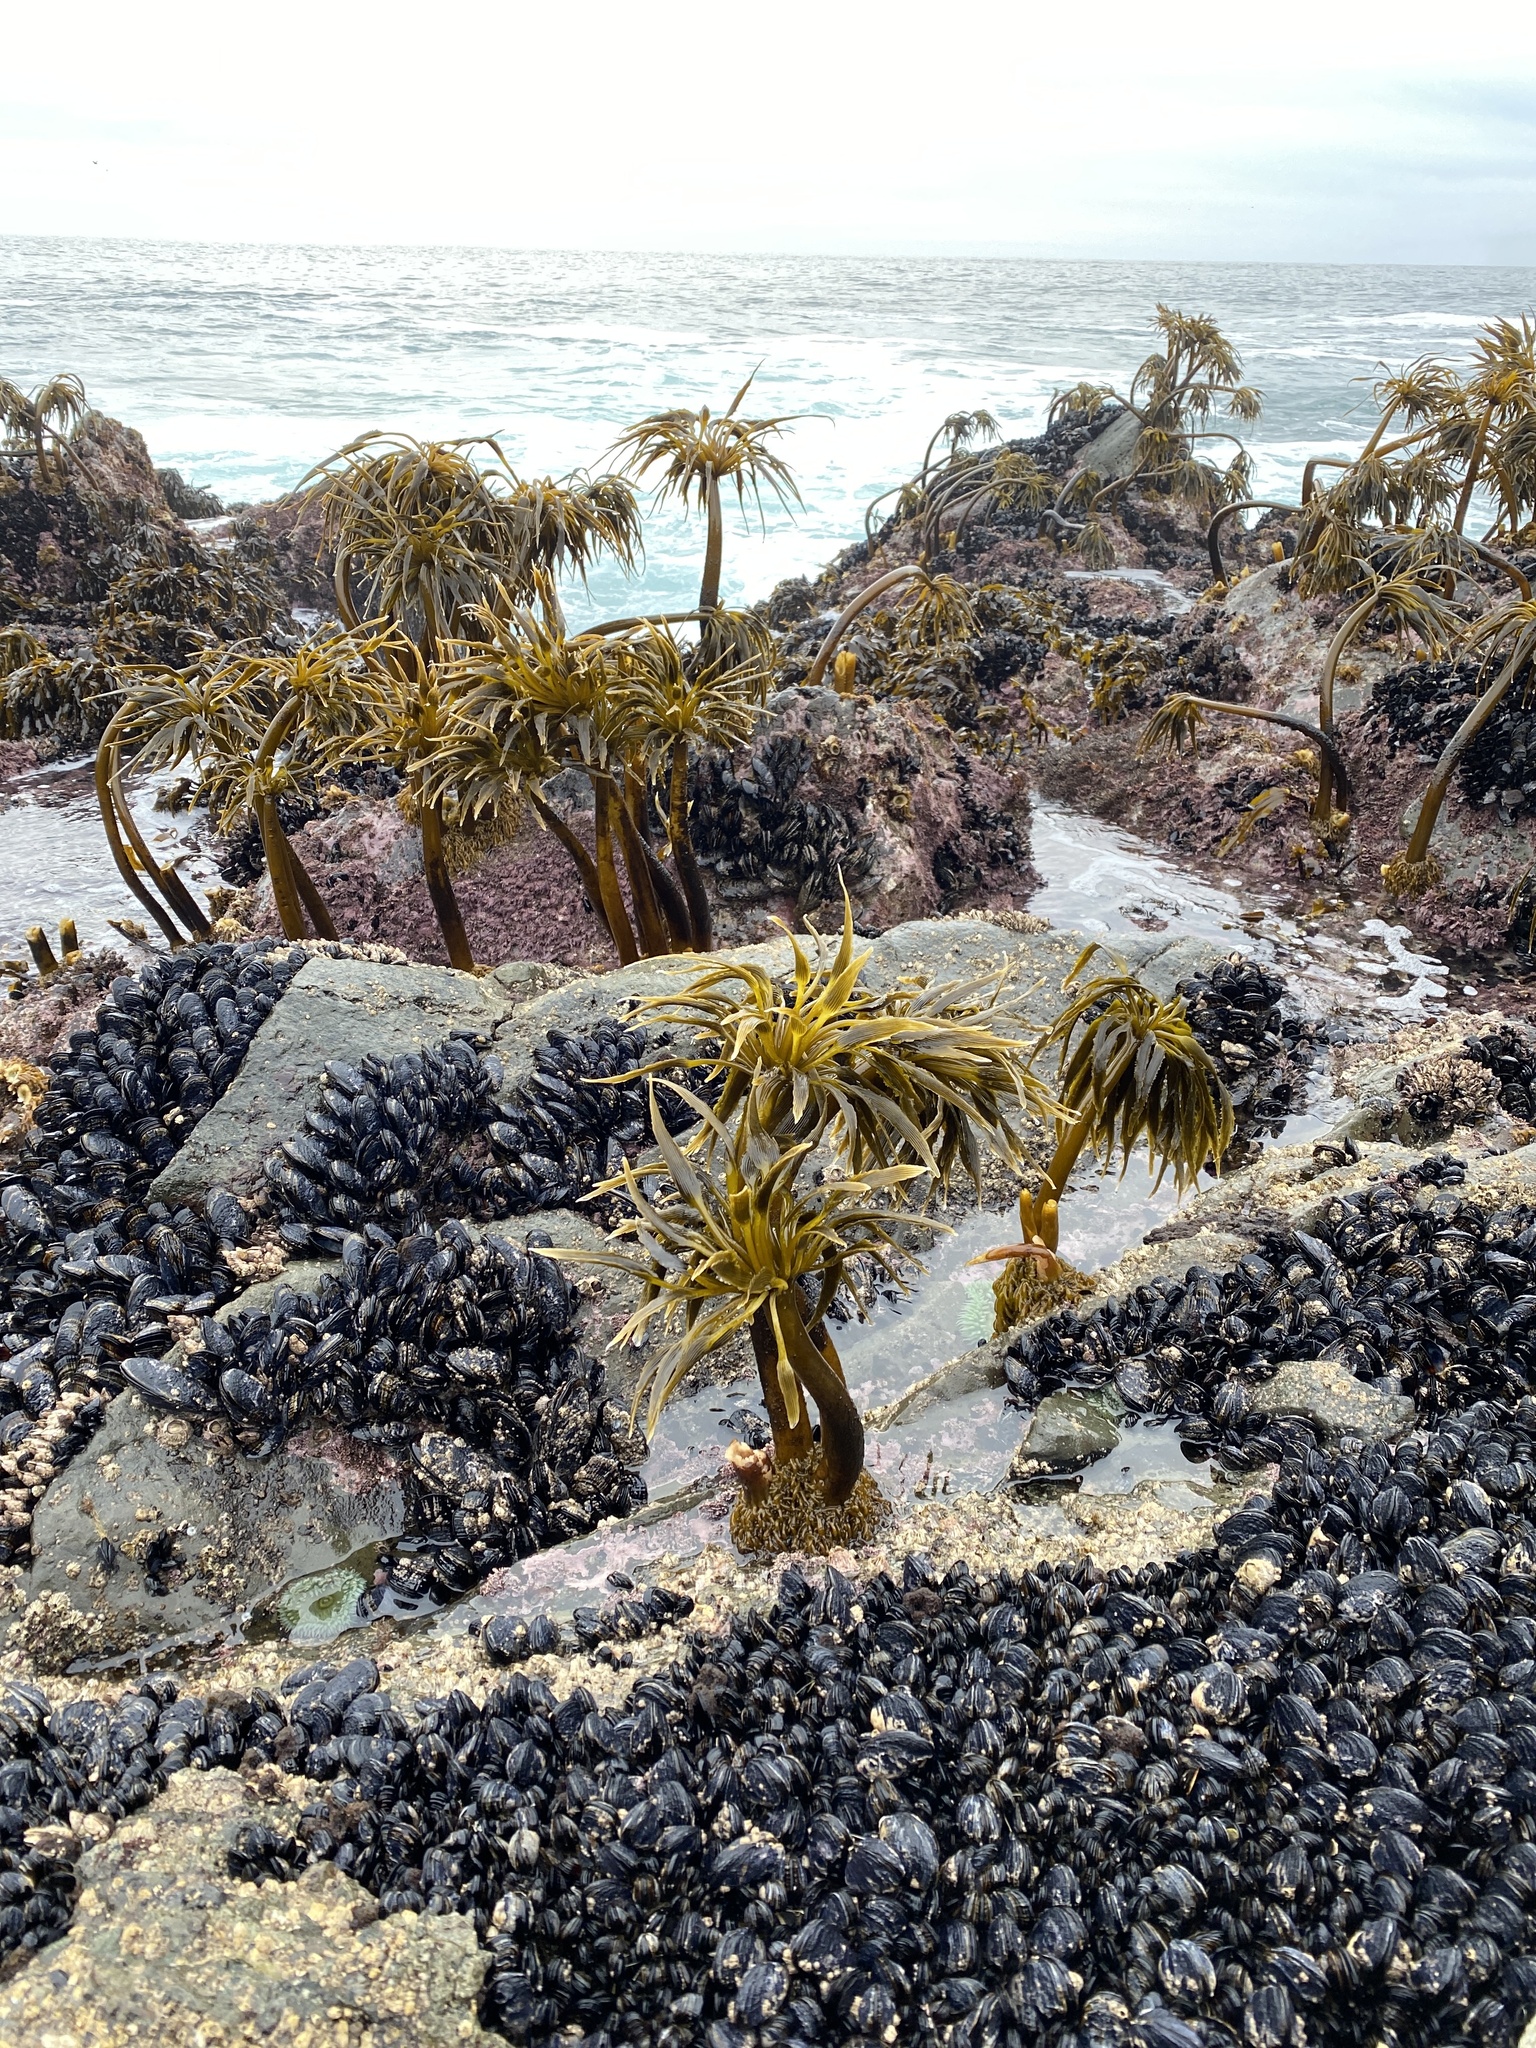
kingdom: Chromista
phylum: Ochrophyta
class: Phaeophyceae
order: Laminariales
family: Laminariaceae
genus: Postelsia
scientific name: Postelsia palmiformis
